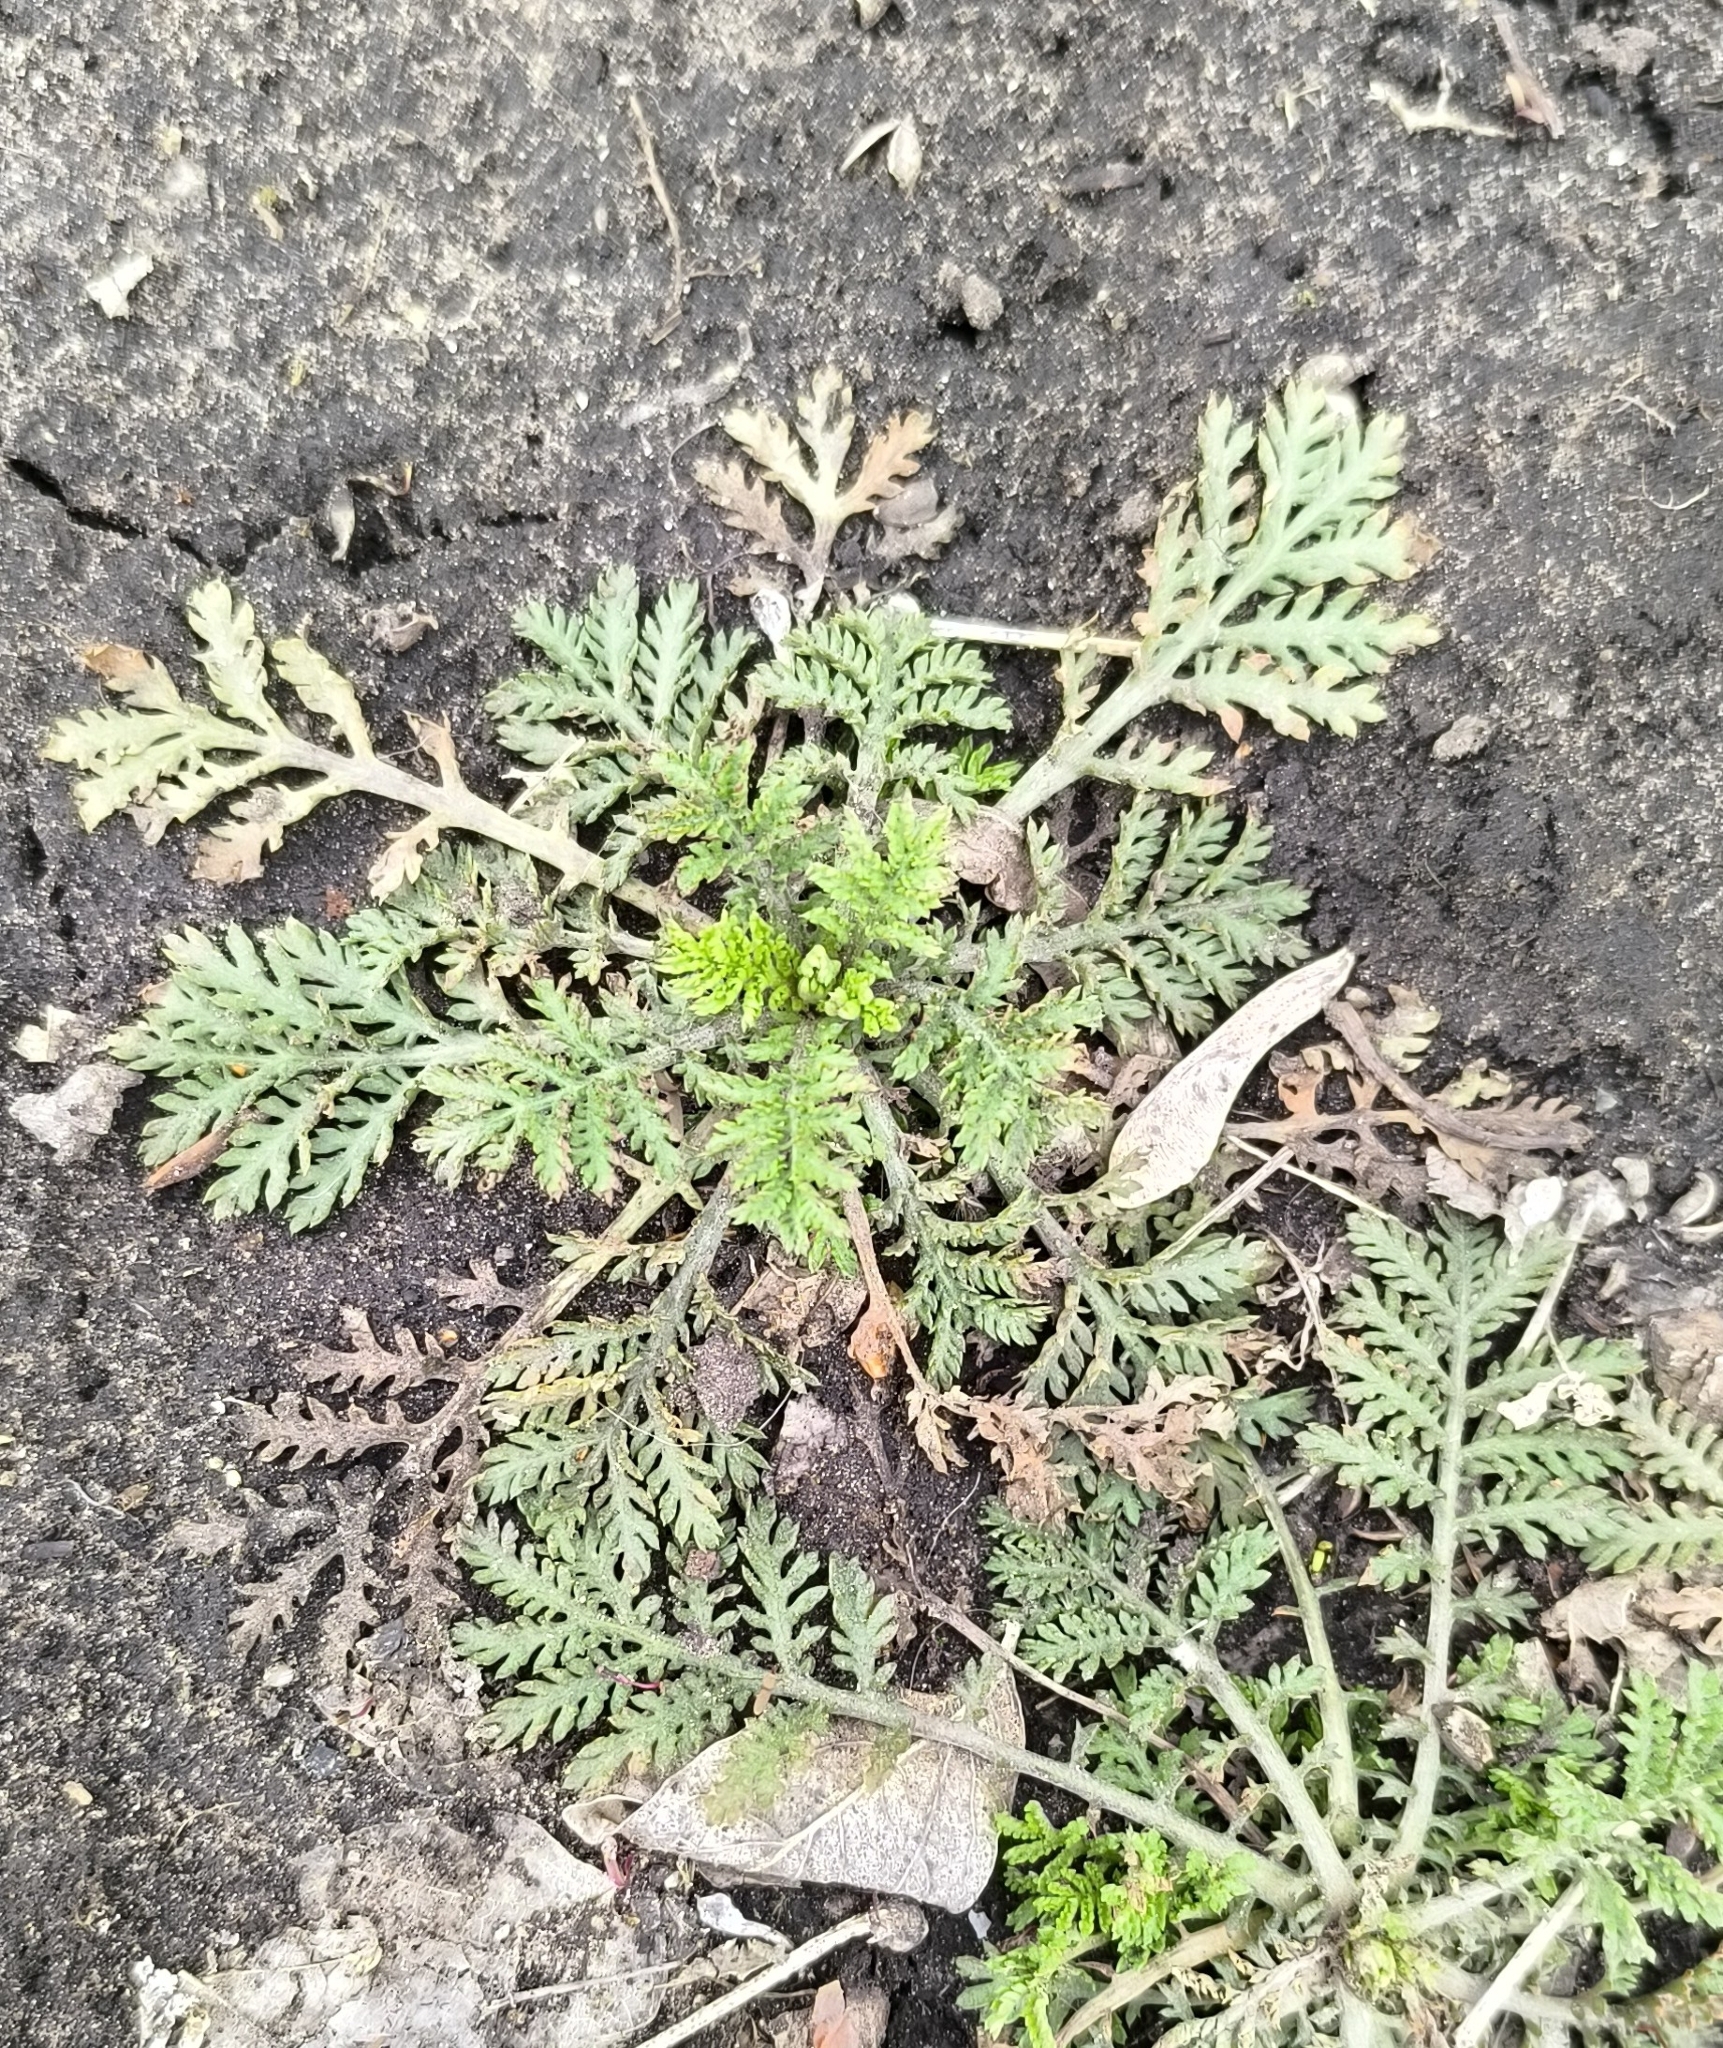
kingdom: Plantae
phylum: Tracheophyta
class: Magnoliopsida
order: Asterales
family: Asteraceae
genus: Cota
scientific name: Cota tinctoria
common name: Golden chamomile
